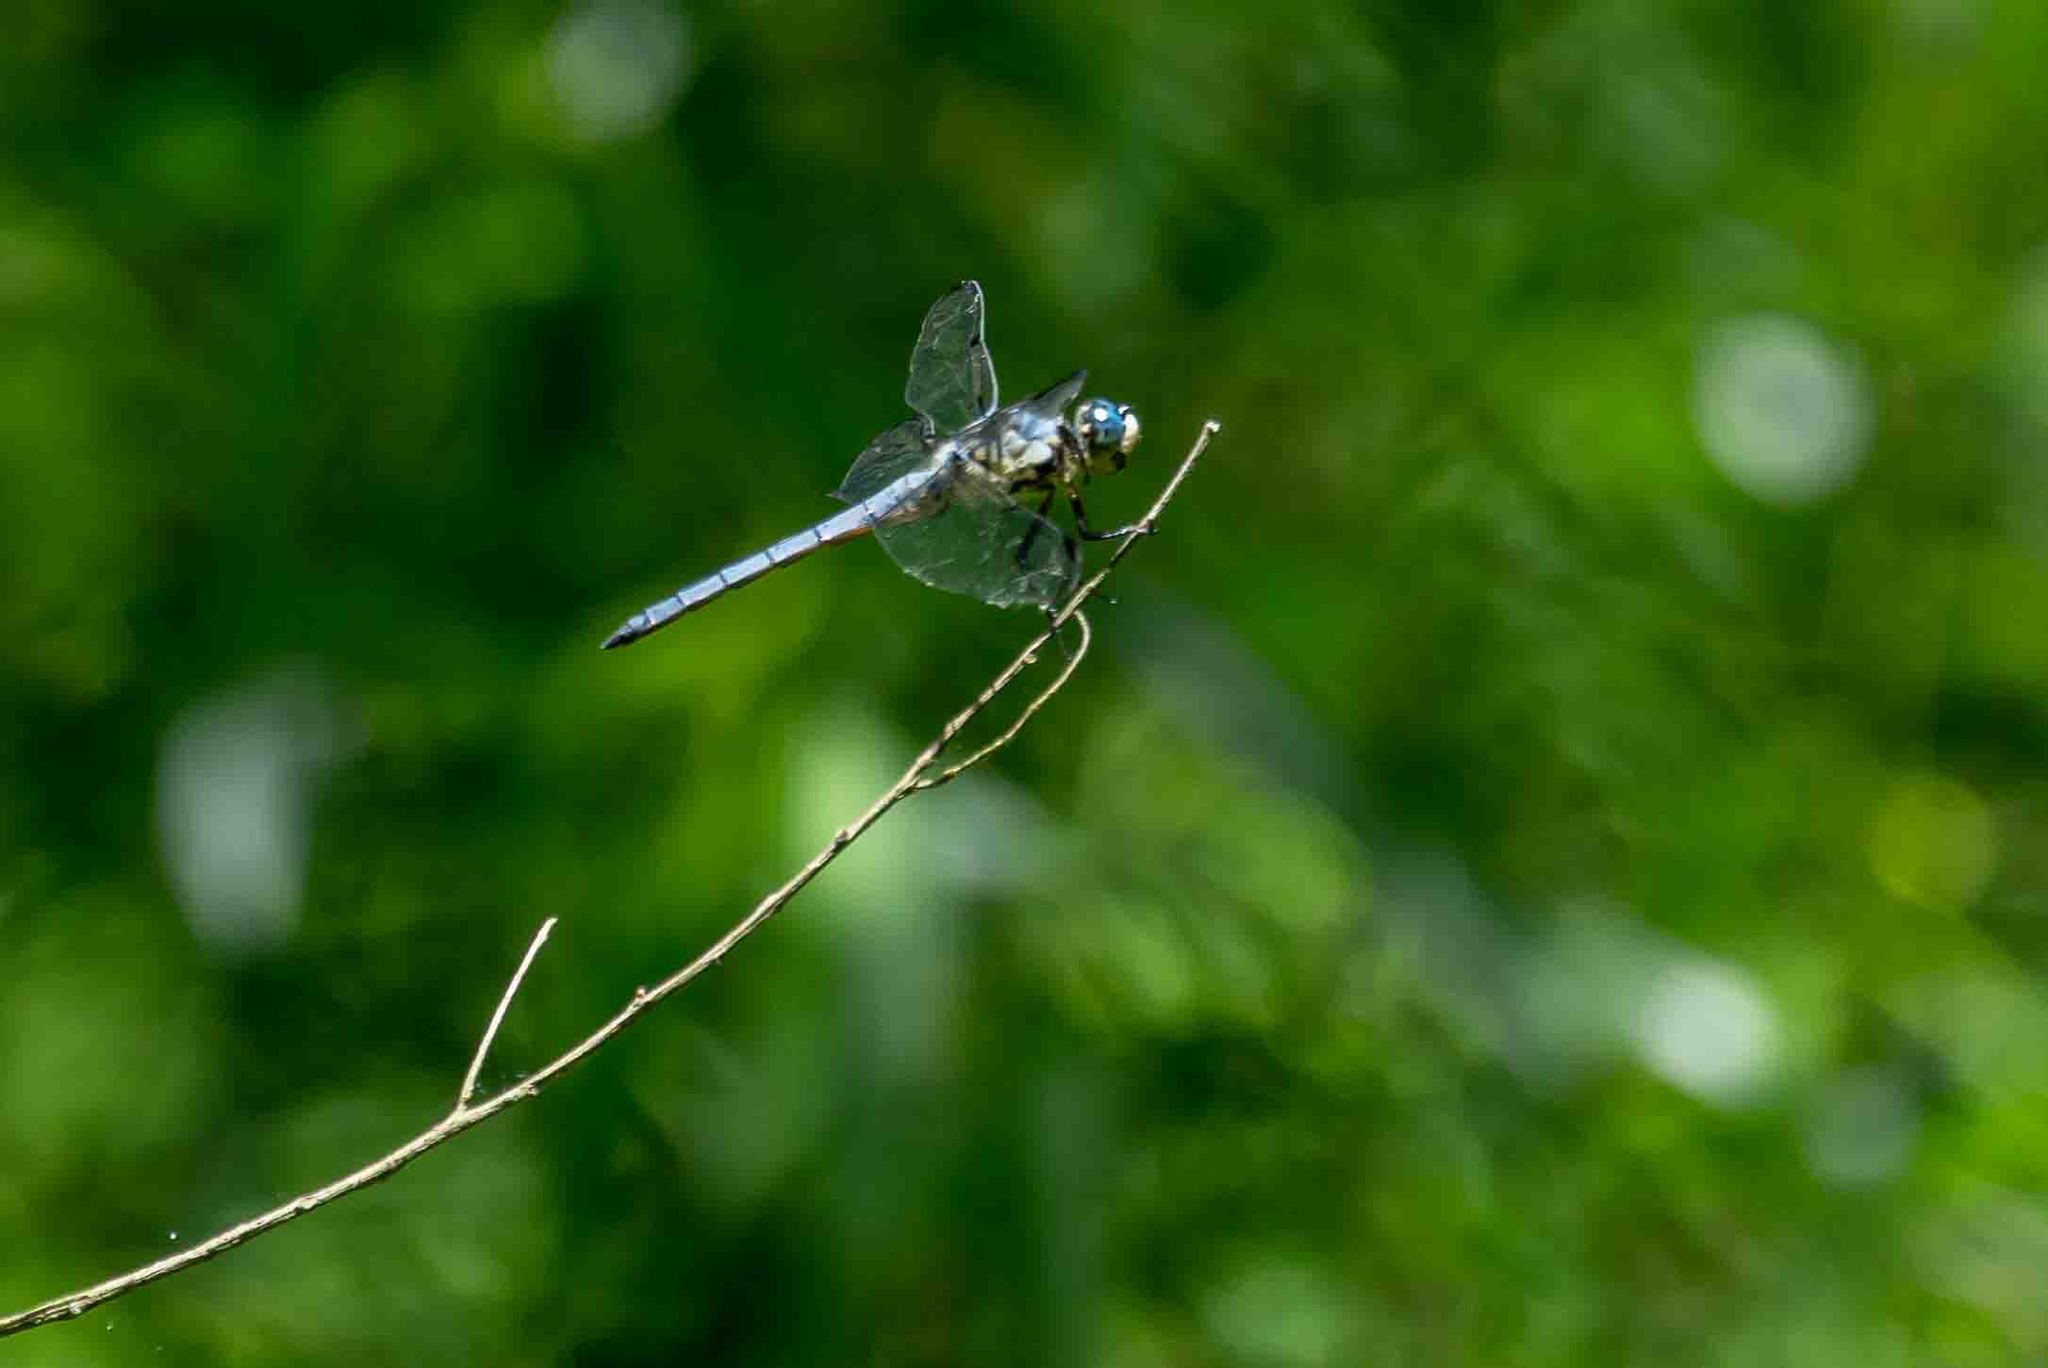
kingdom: Animalia
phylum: Arthropoda
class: Insecta
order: Odonata
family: Libellulidae
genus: Libellula
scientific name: Libellula vibrans
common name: Great blue skimmer
